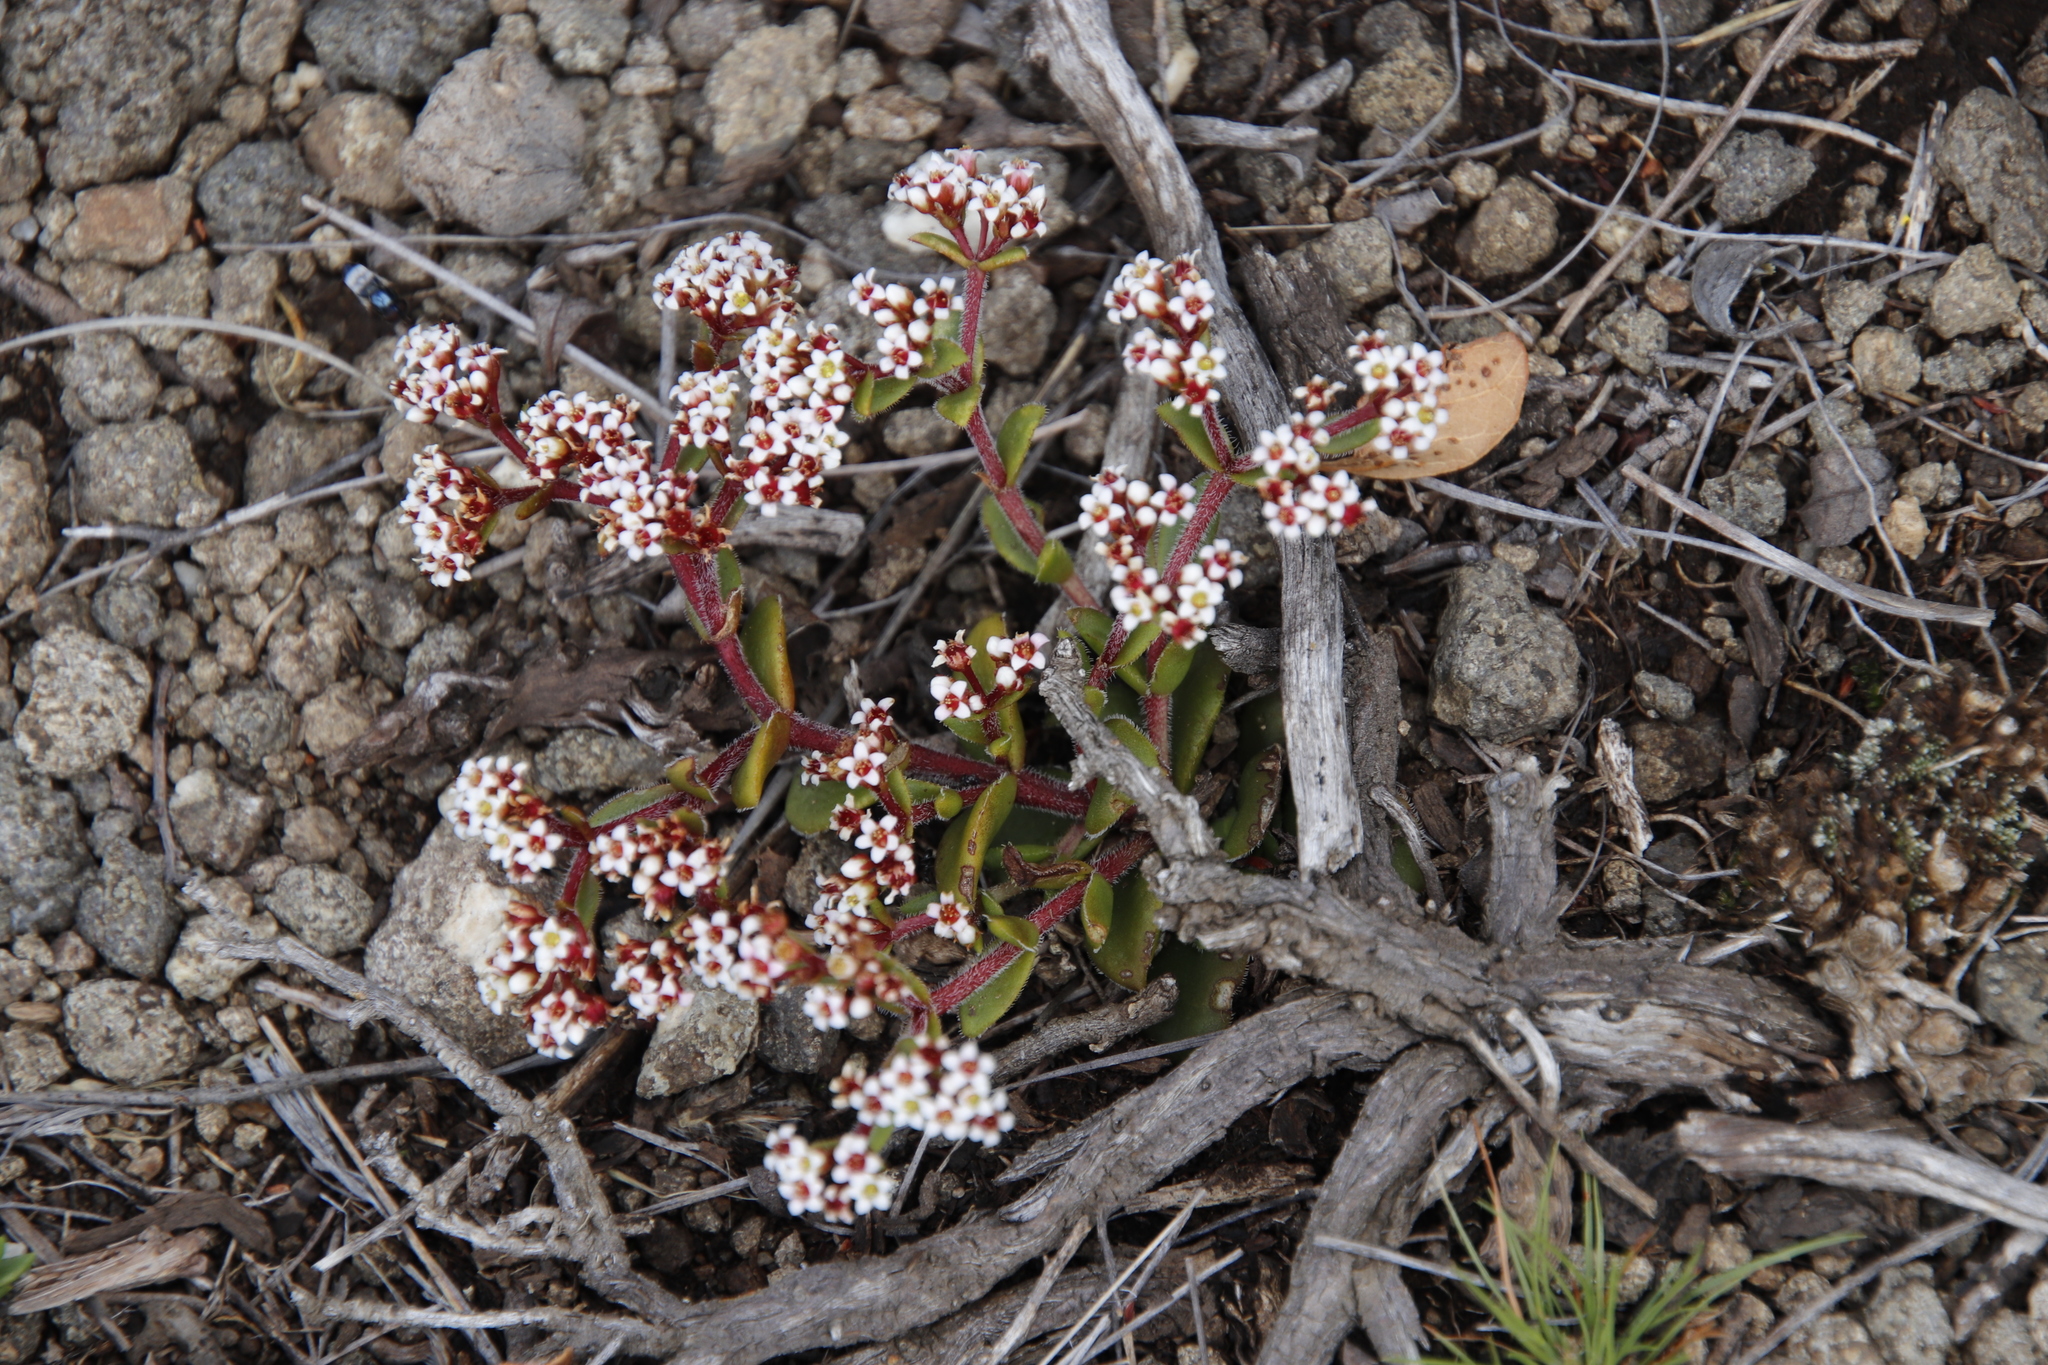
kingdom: Plantae
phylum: Tracheophyta
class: Magnoliopsida
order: Saxifragales
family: Crassulaceae
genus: Crassula
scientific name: Crassula natalensis
